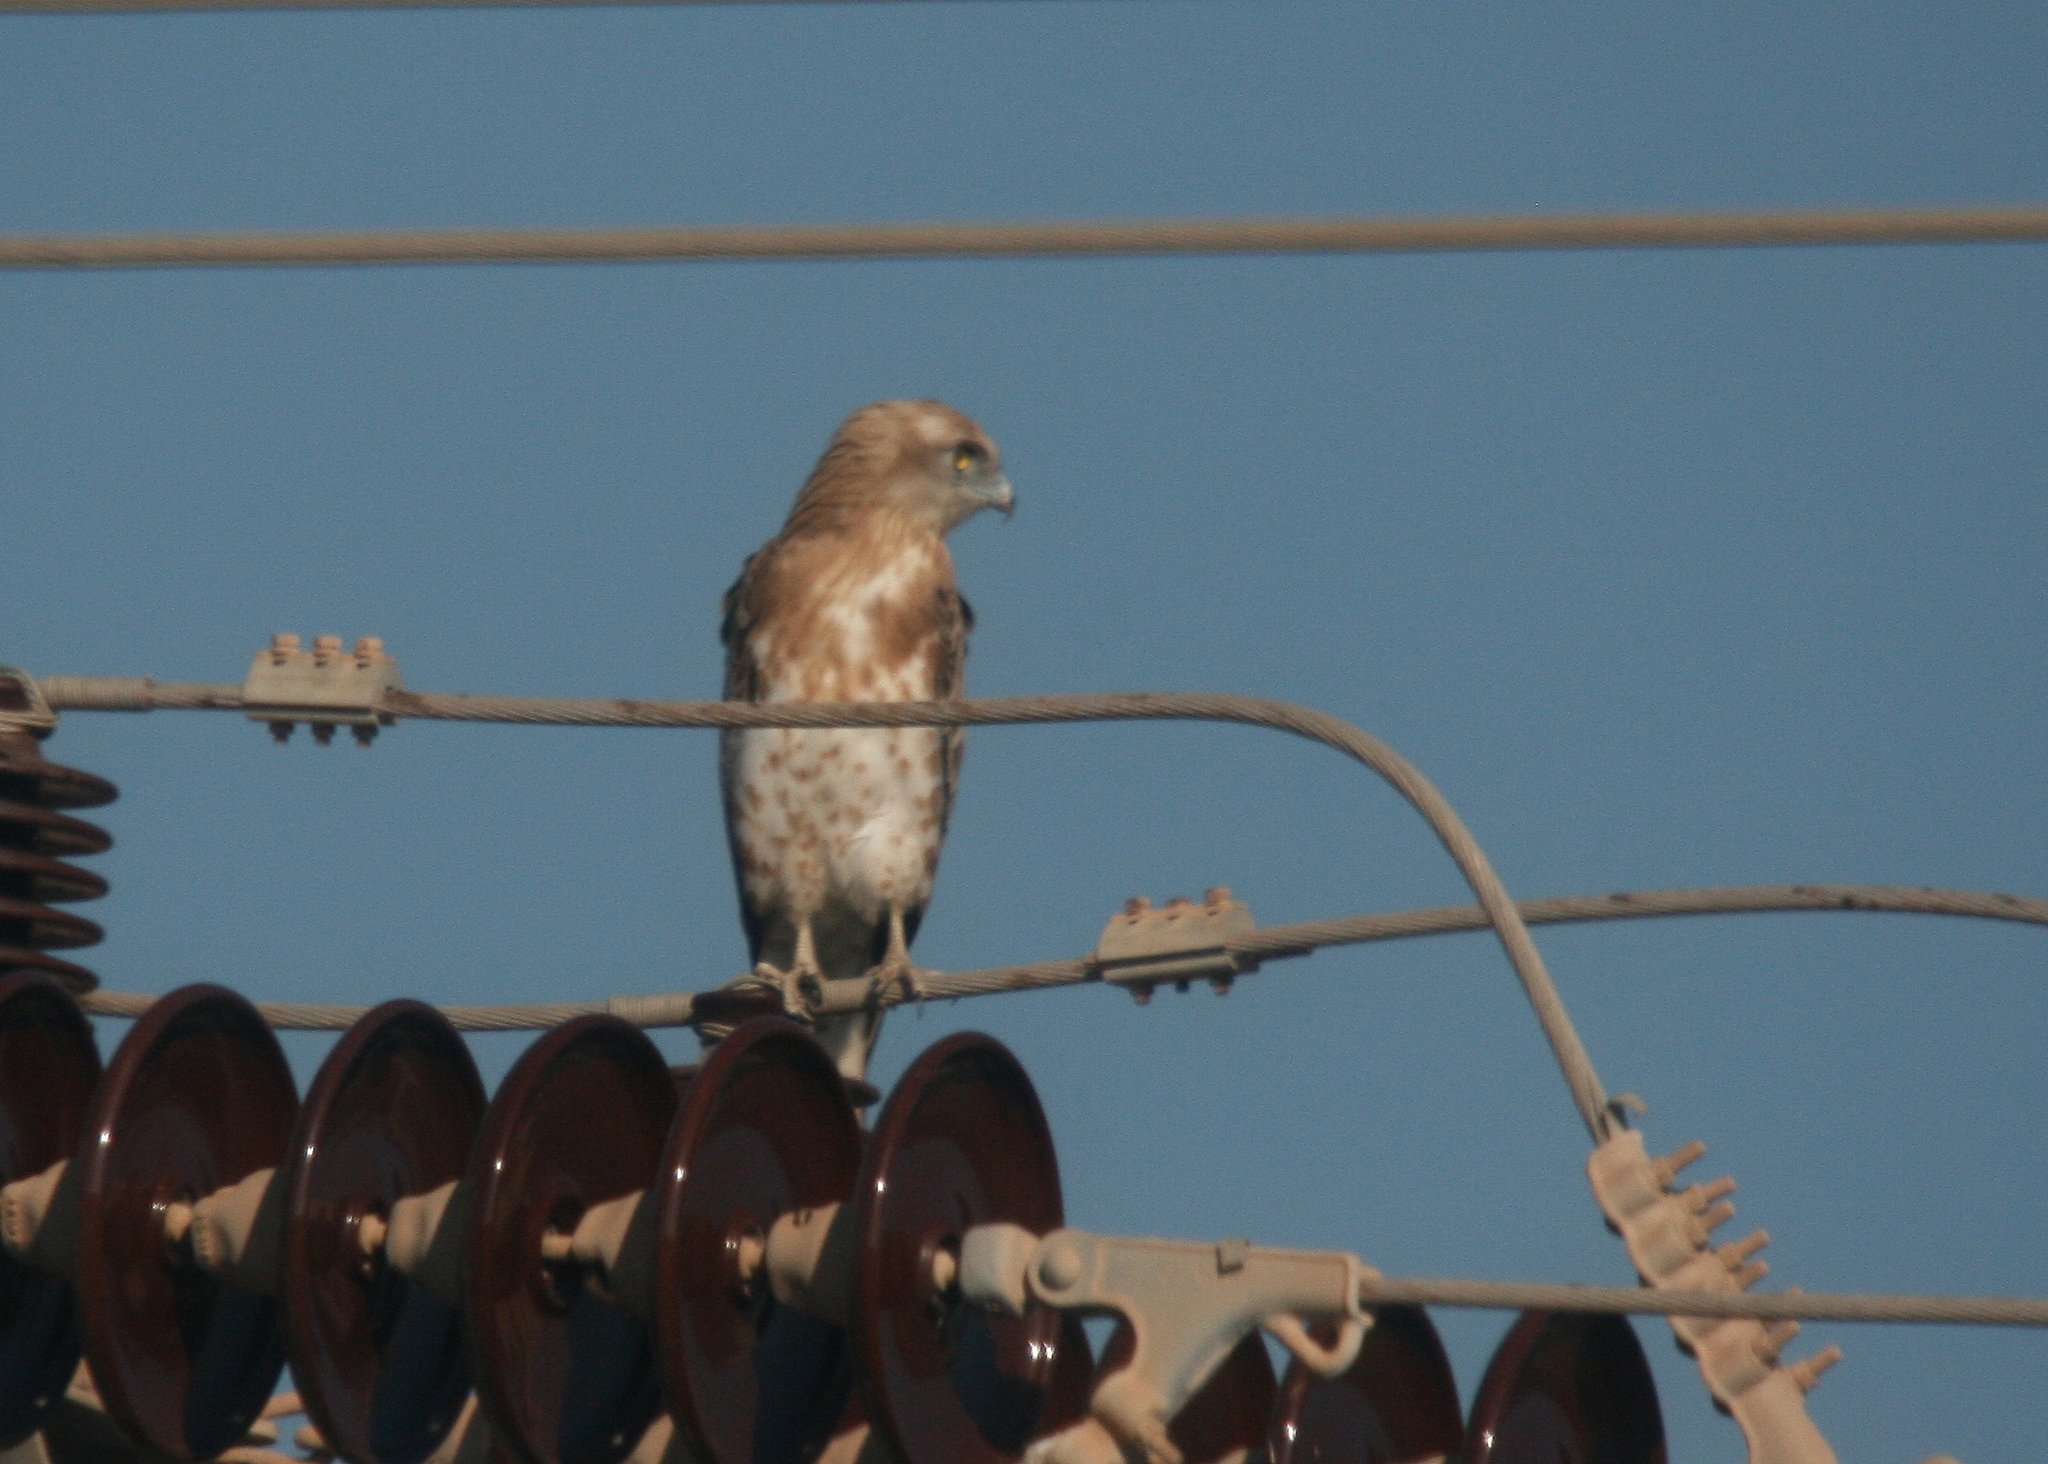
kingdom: Animalia
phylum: Chordata
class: Aves
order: Accipitriformes
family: Accipitridae
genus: Circaetus
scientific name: Circaetus gallicus
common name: Short-toed snake eagle
